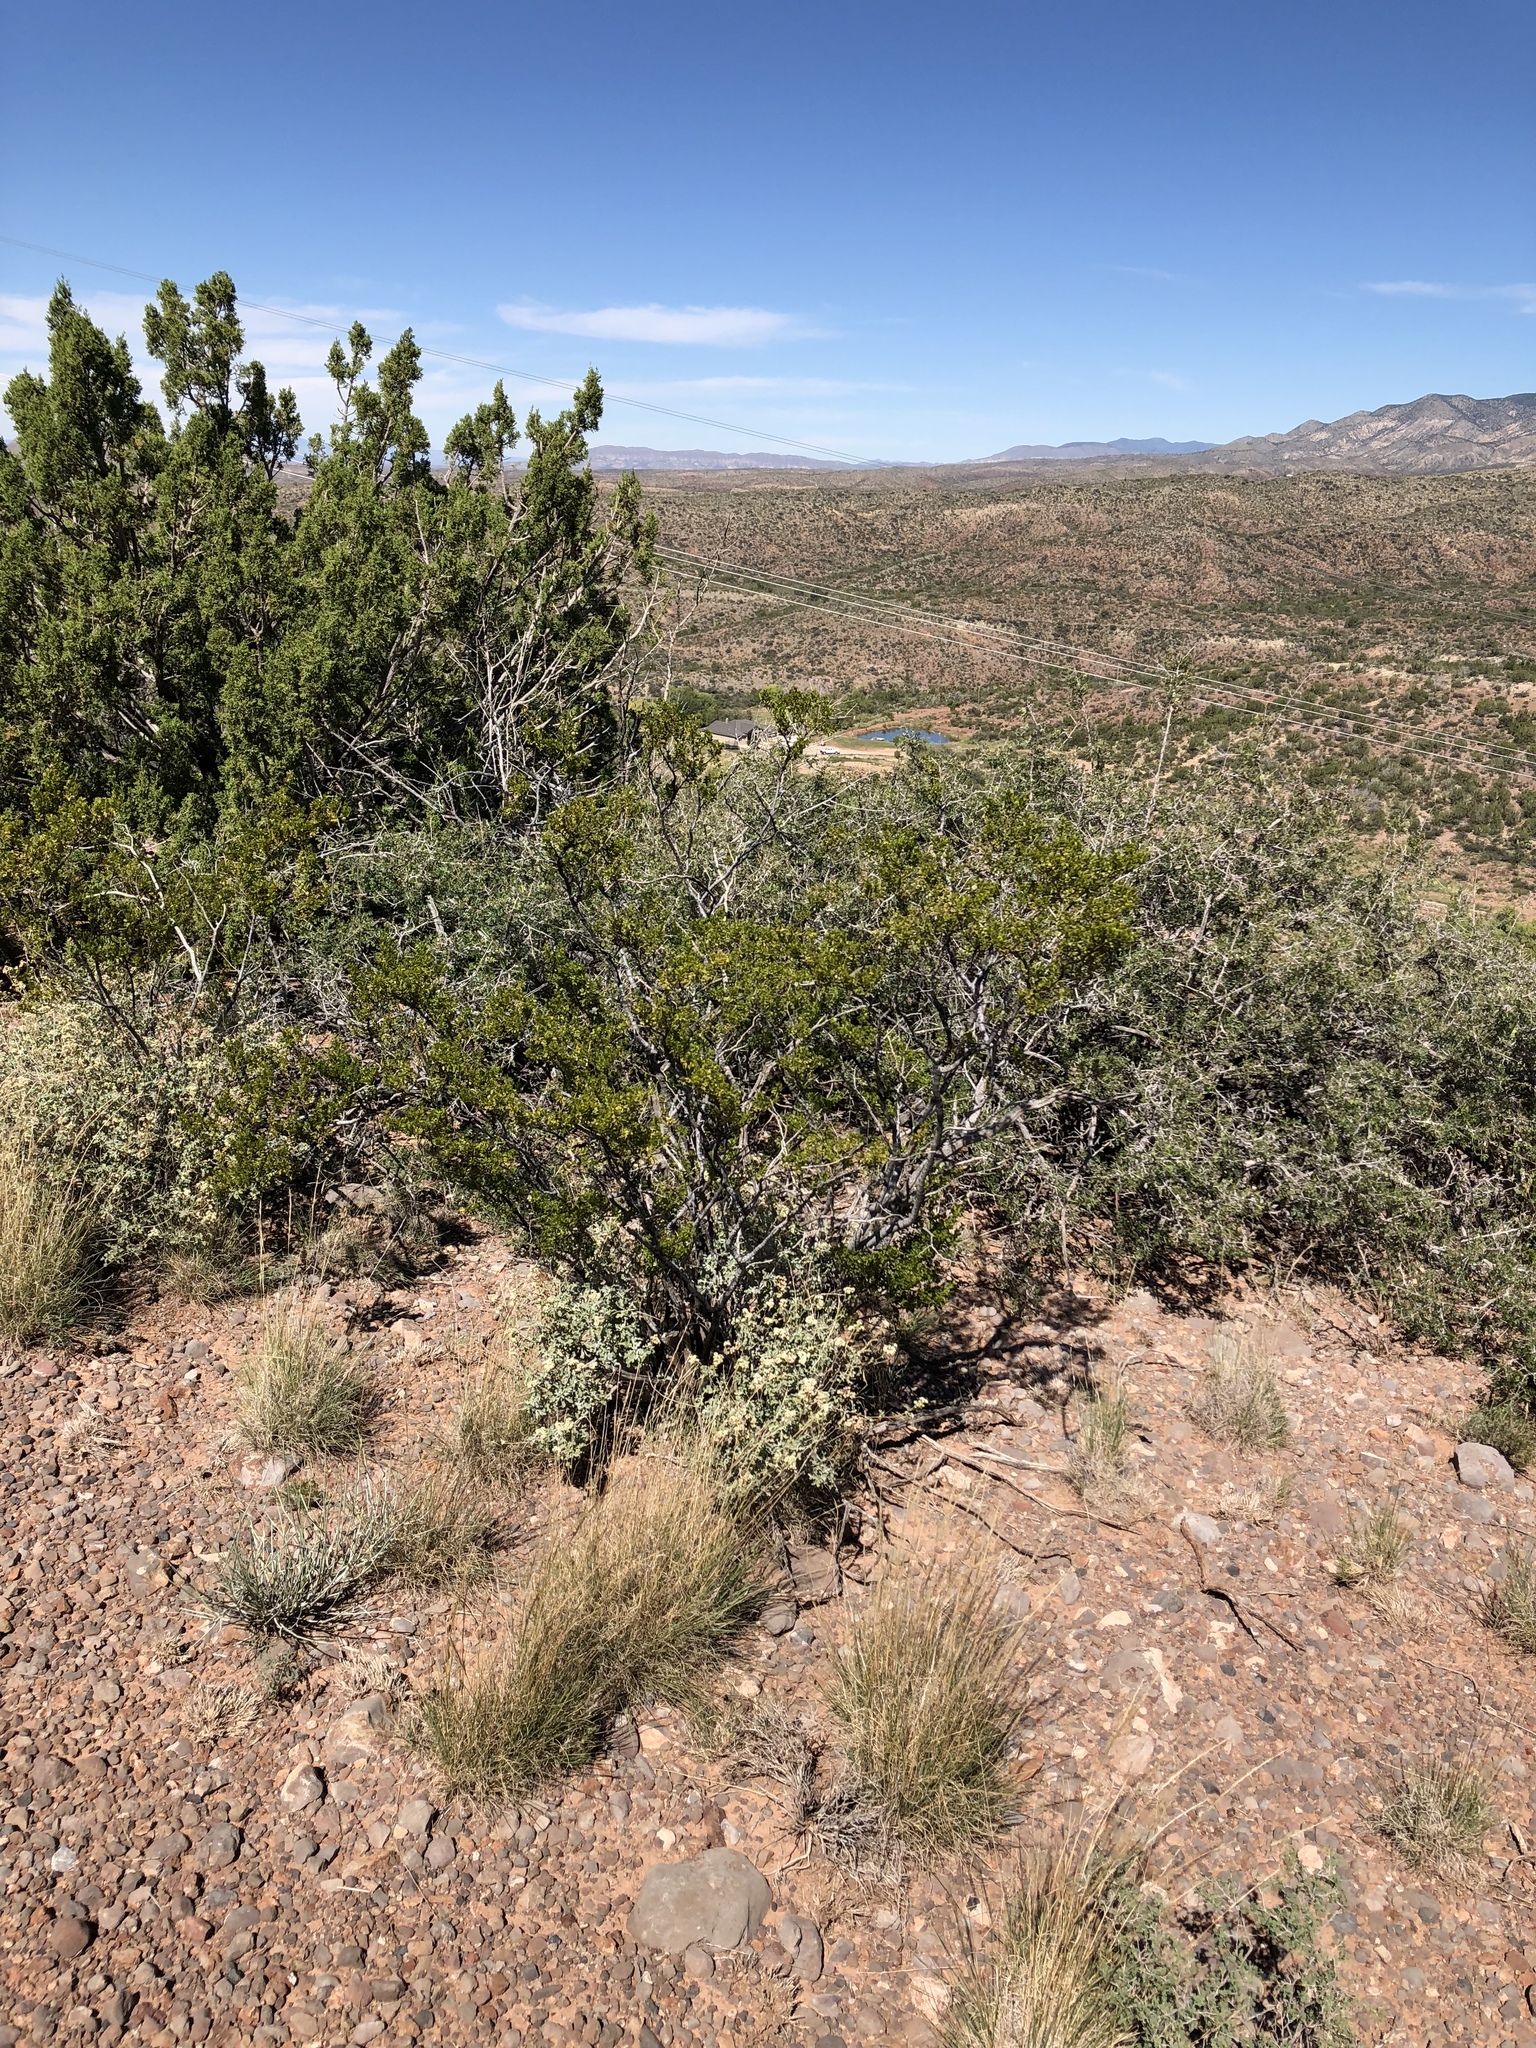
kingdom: Plantae
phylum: Tracheophyta
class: Magnoliopsida
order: Zygophyllales
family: Zygophyllaceae
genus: Larrea
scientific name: Larrea tridentata
